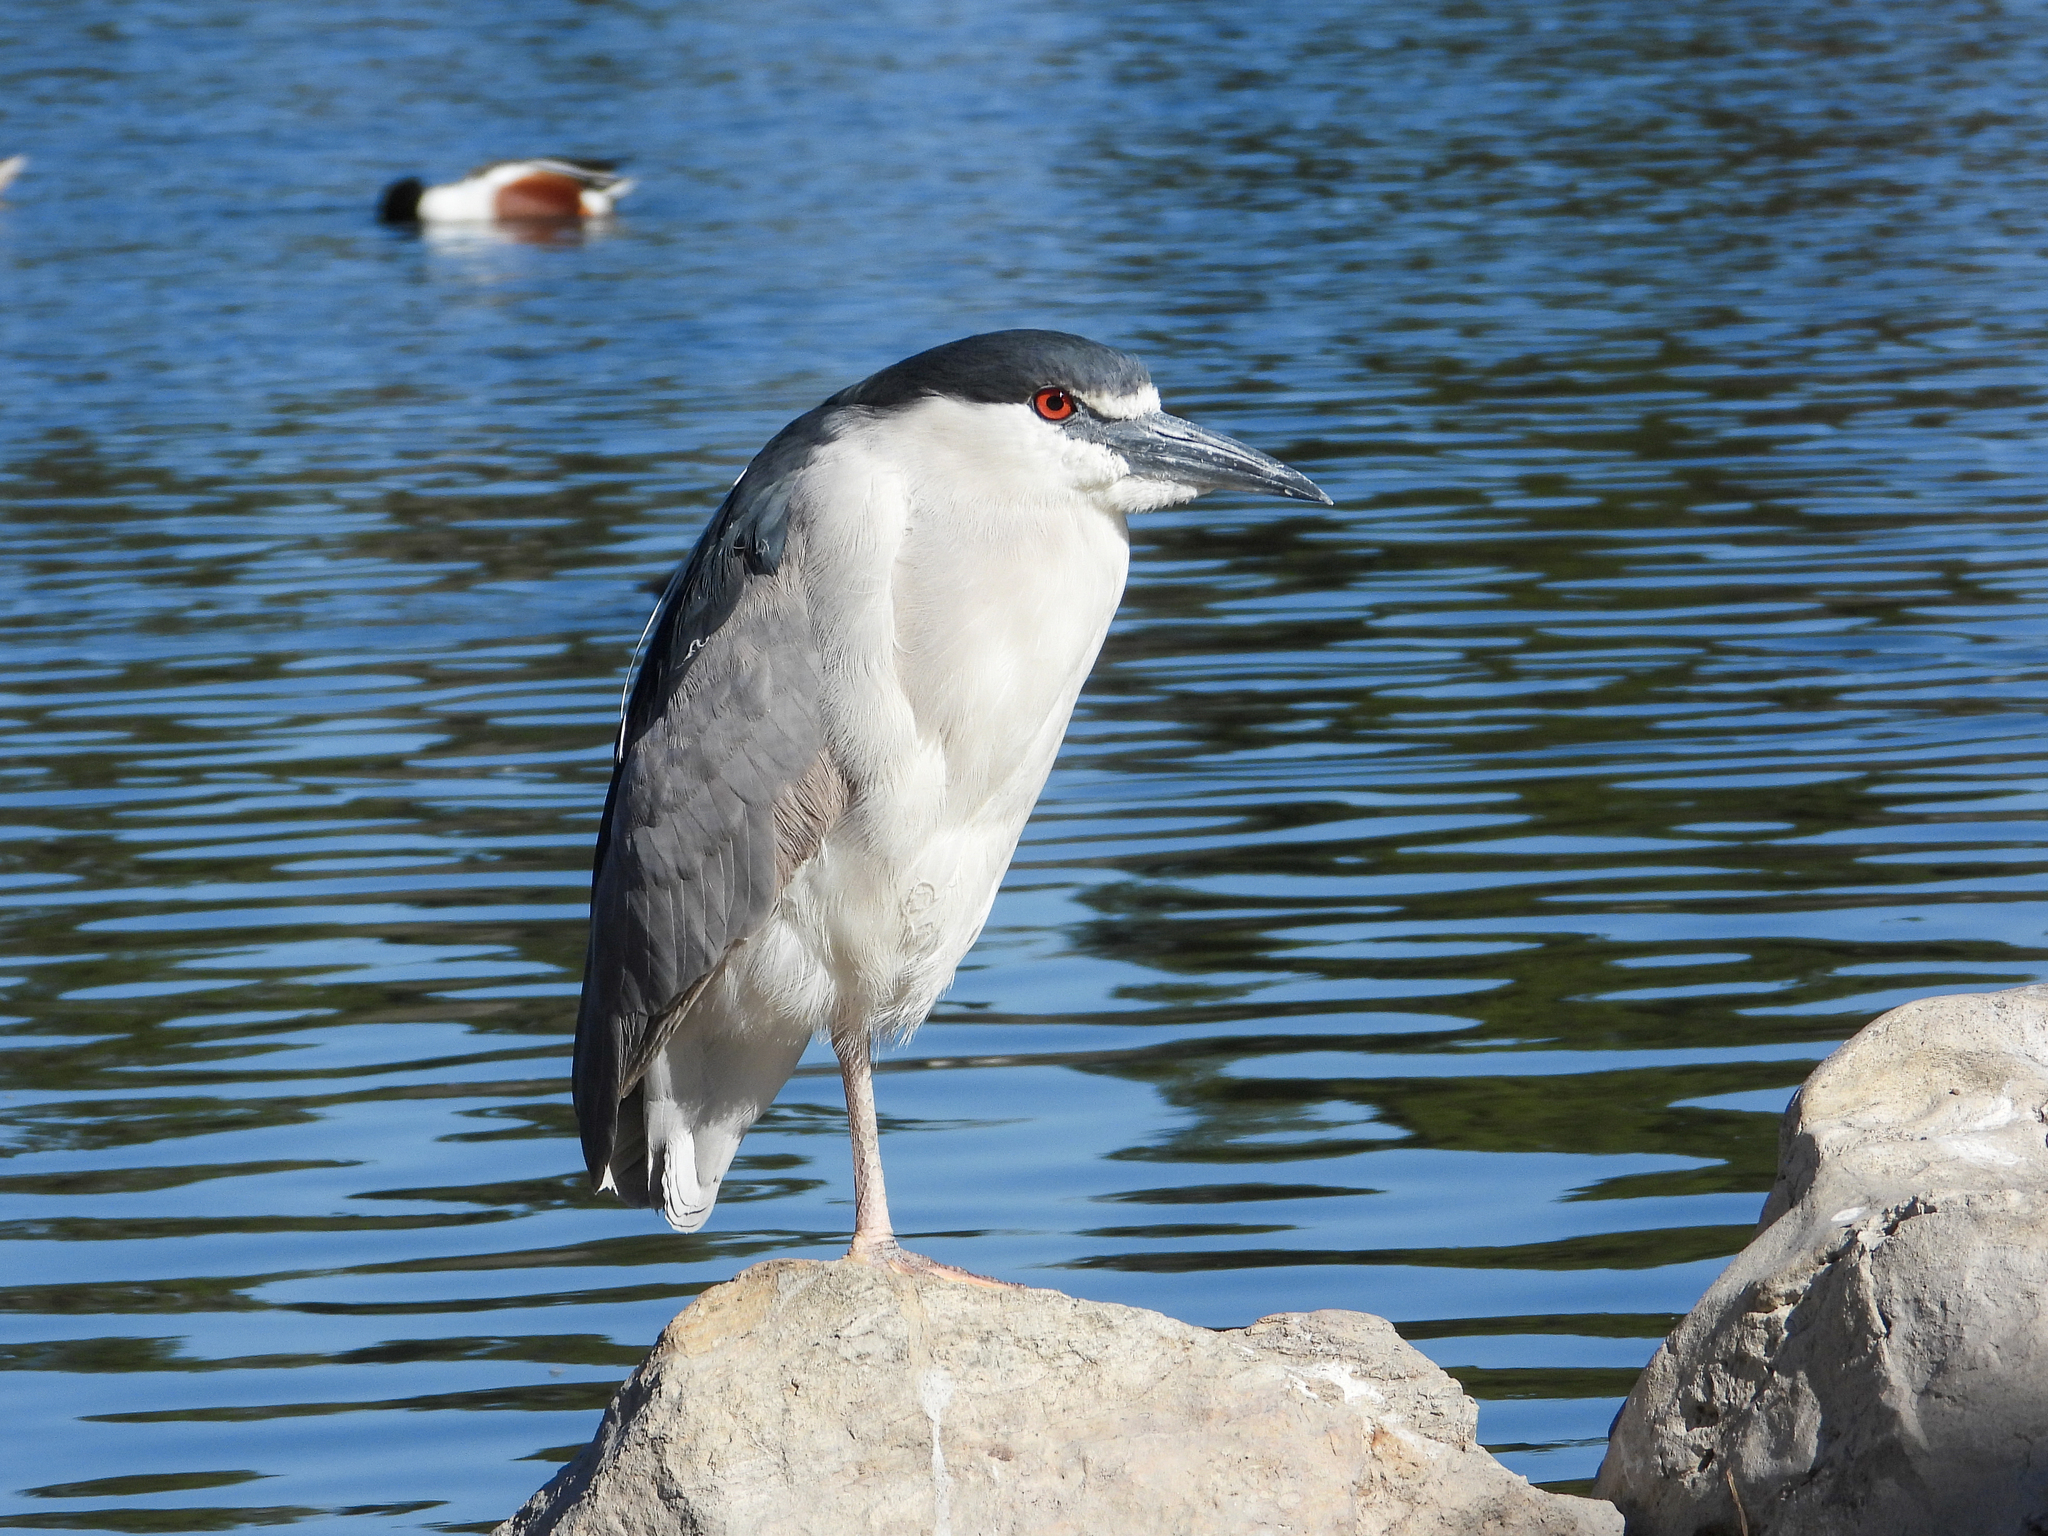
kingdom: Animalia
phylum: Chordata
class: Aves
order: Pelecaniformes
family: Ardeidae
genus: Nycticorax
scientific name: Nycticorax nycticorax
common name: Black-crowned night heron
